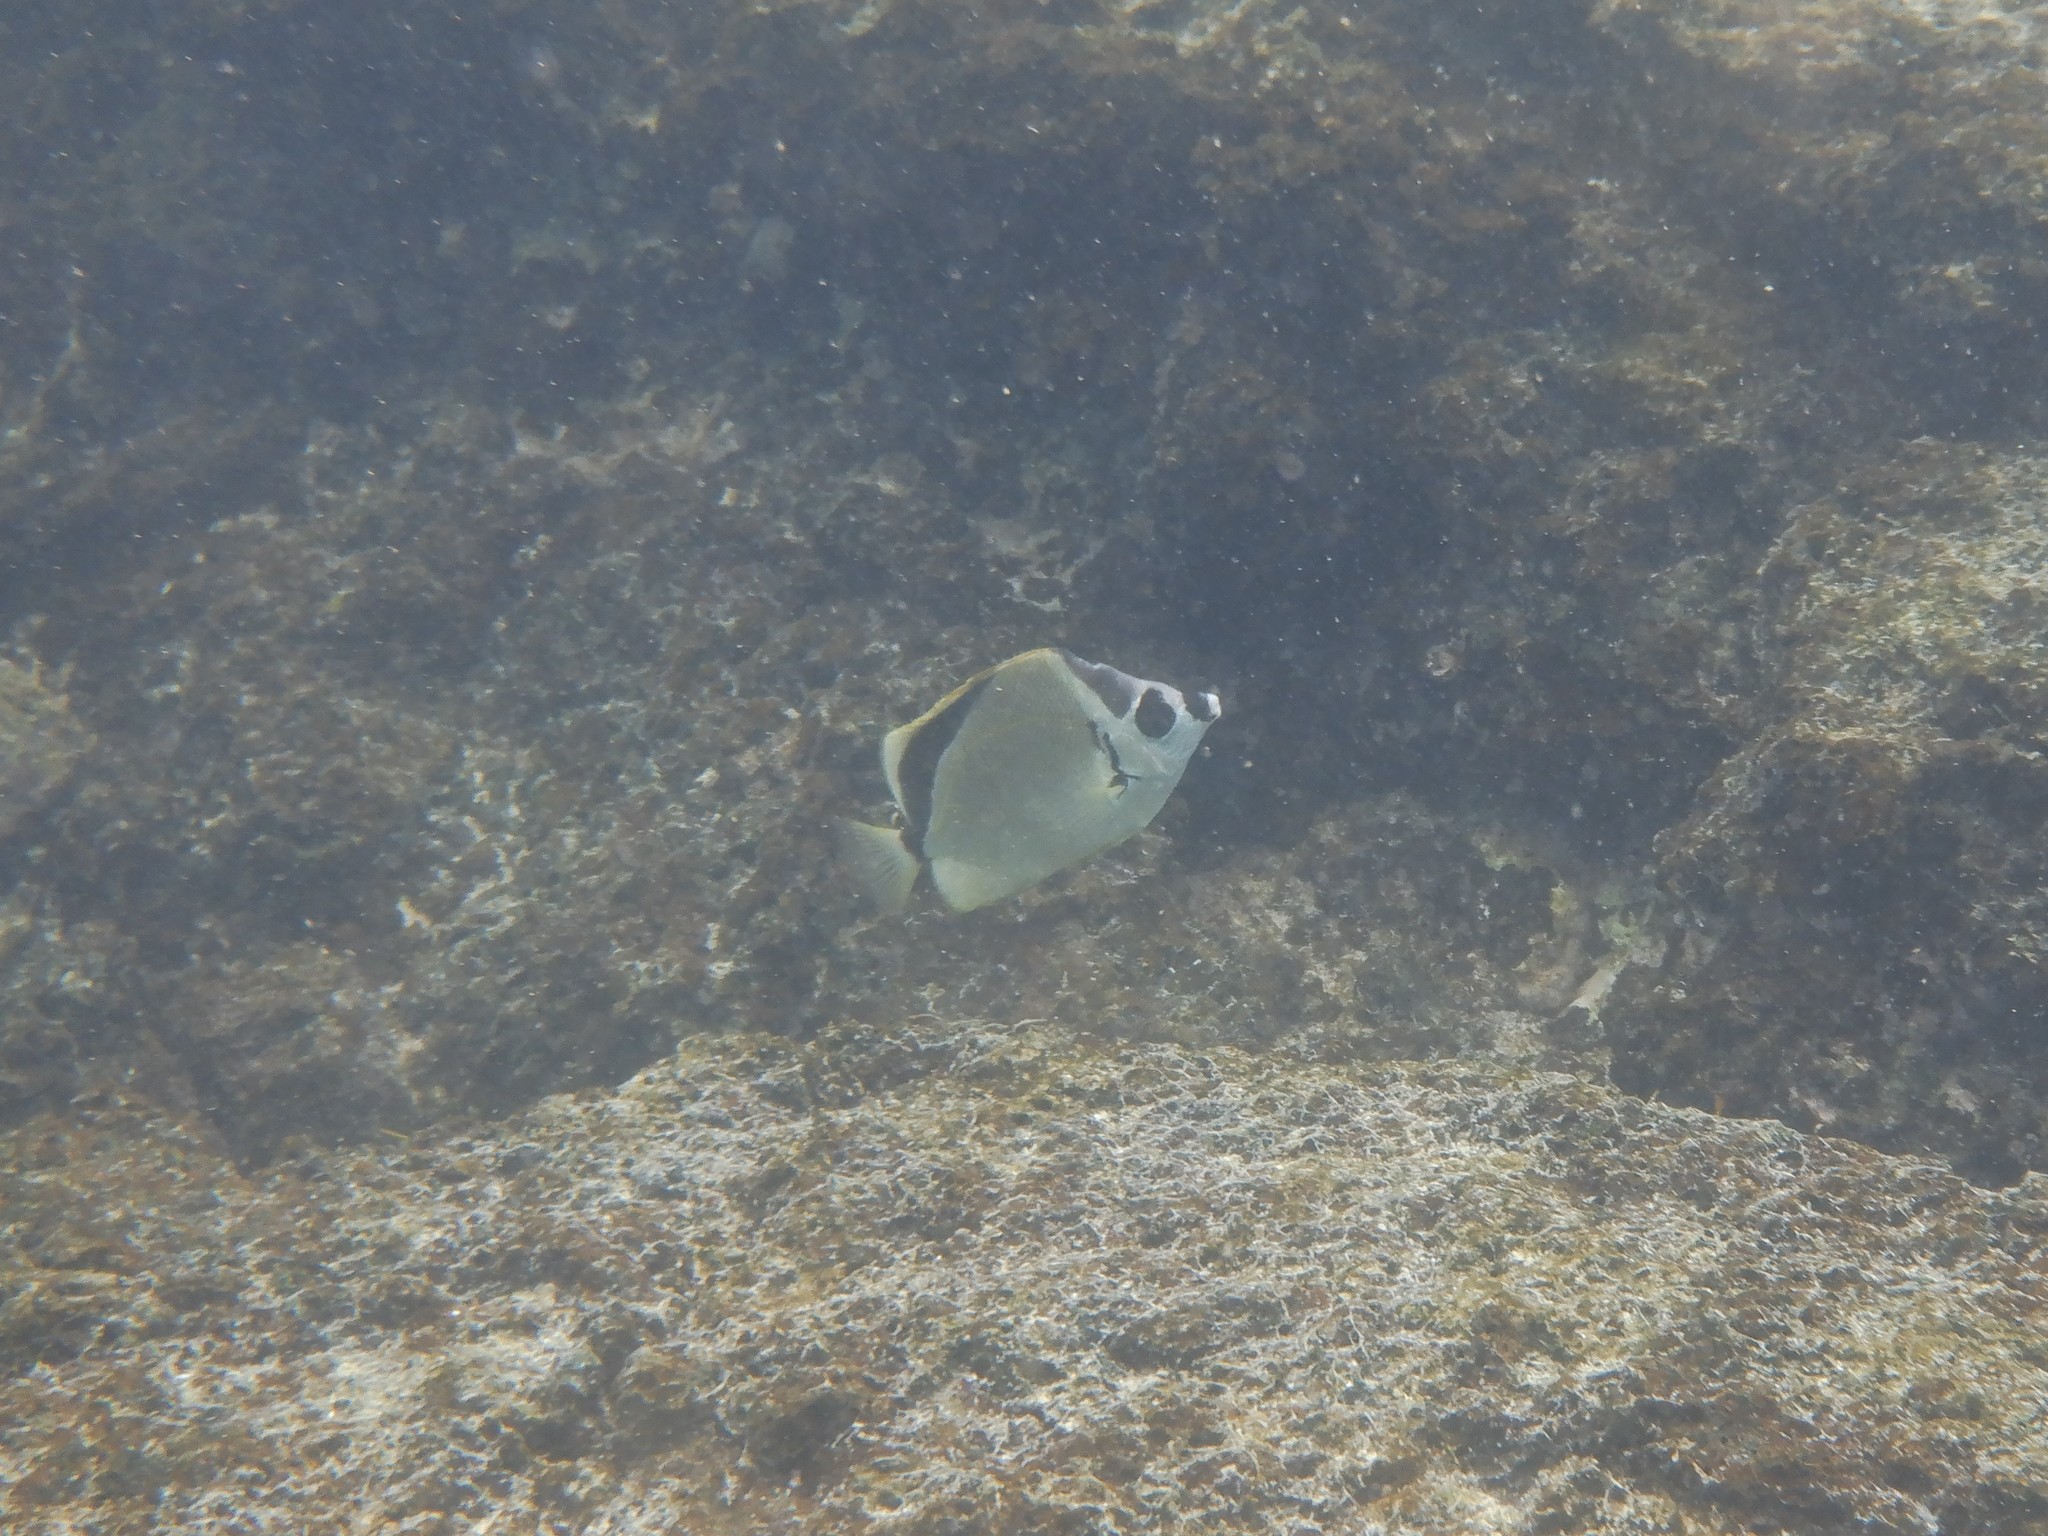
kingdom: Animalia
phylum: Chordata
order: Perciformes
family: Chaetodontidae
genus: Johnrandallia
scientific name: Johnrandallia nigrirostris
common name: Barberfish
